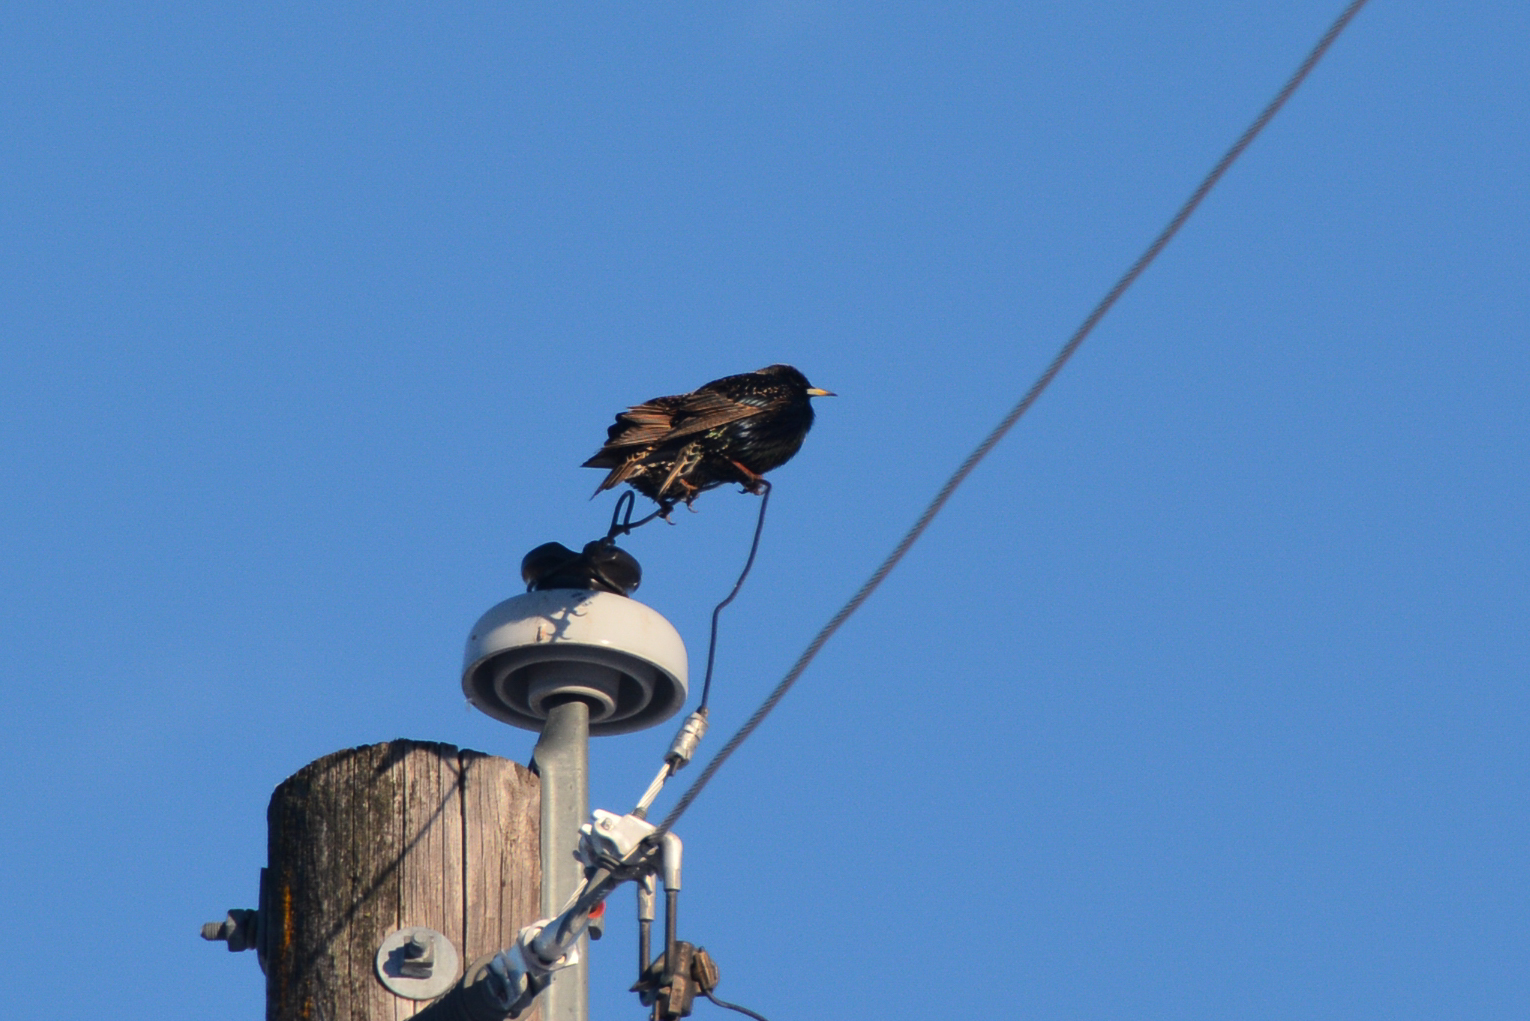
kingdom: Animalia
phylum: Chordata
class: Aves
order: Passeriformes
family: Sturnidae
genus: Sturnus
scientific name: Sturnus vulgaris
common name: Common starling
